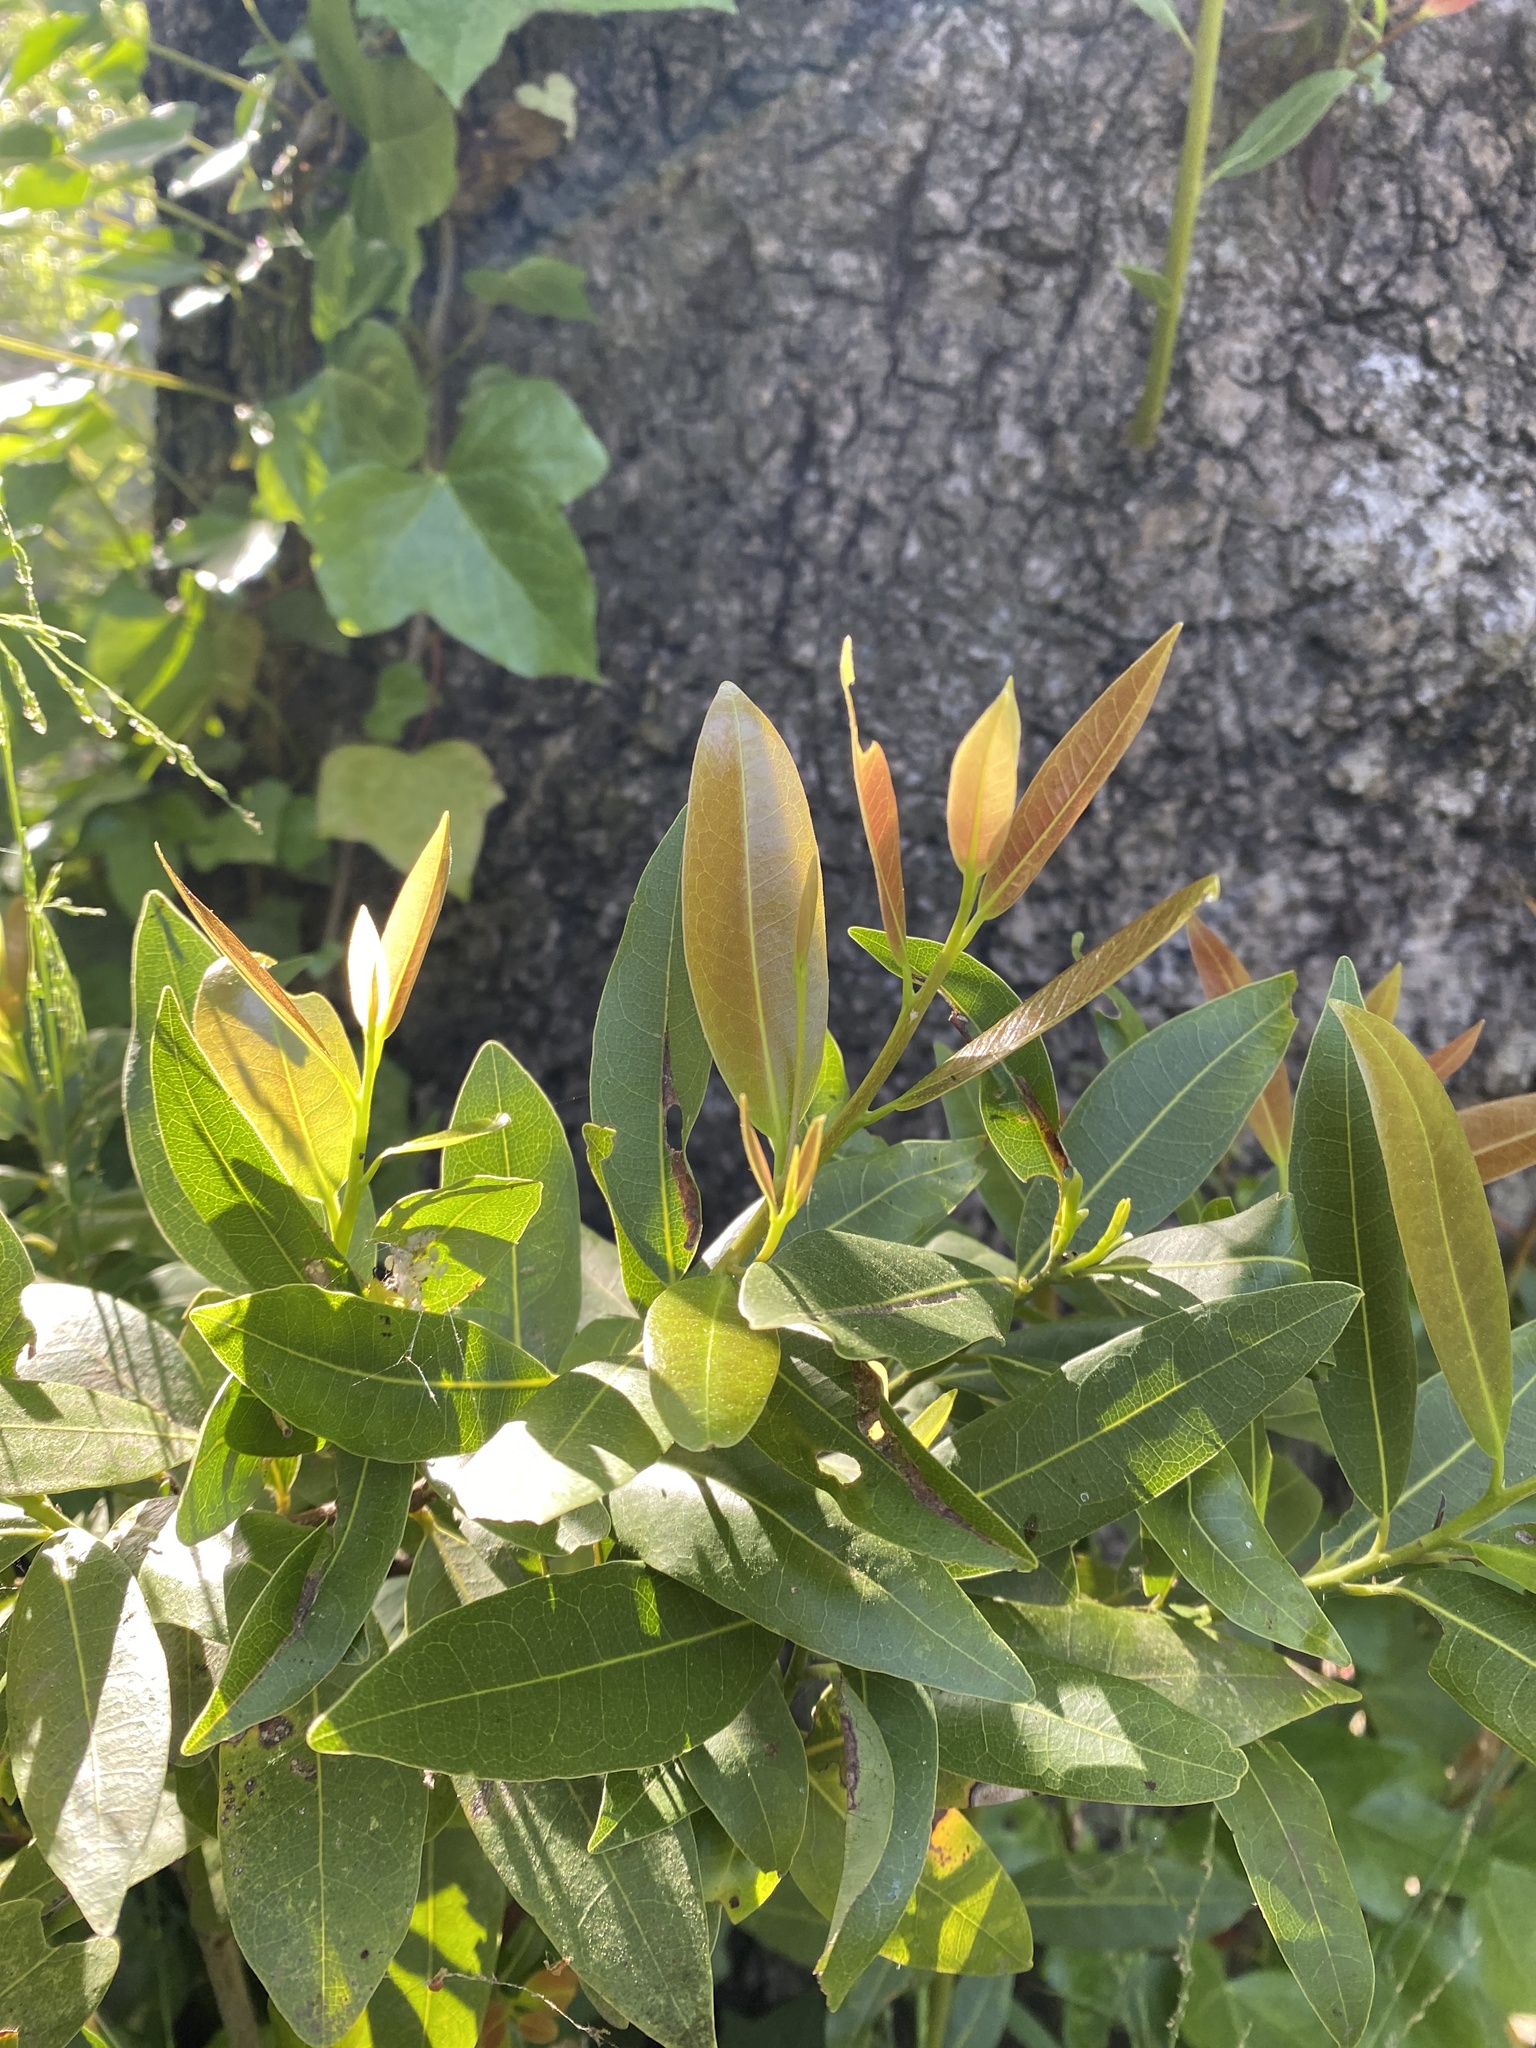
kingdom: Plantae
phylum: Tracheophyta
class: Magnoliopsida
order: Laurales
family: Lauraceae
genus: Umbellularia
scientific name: Umbellularia californica
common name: California bay
